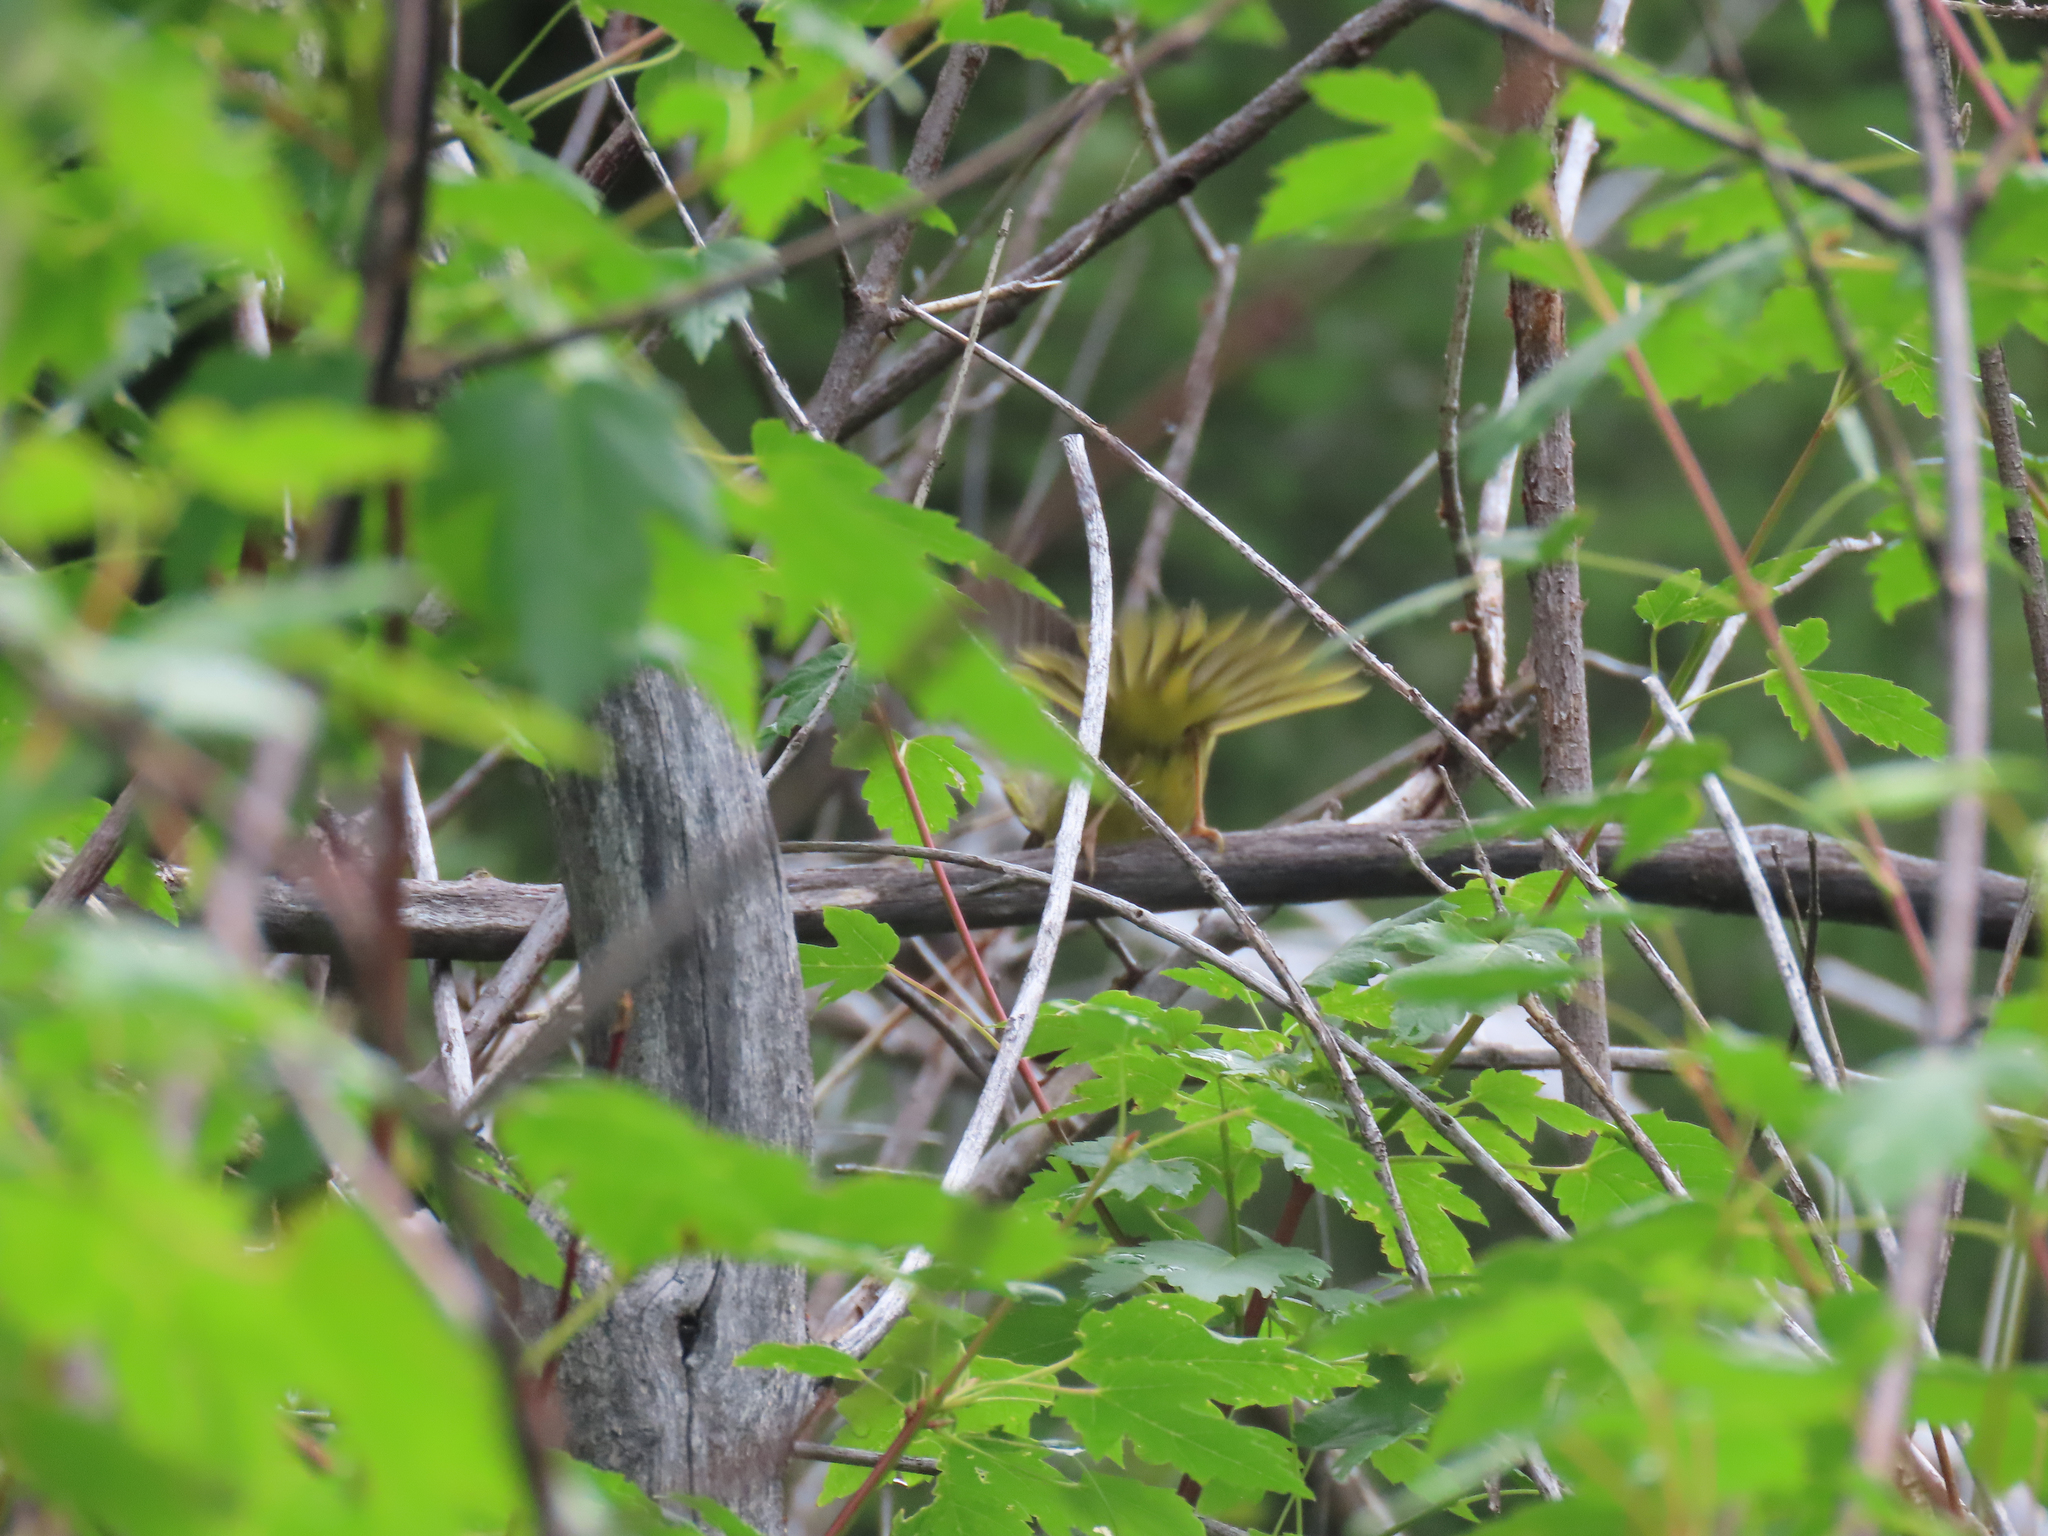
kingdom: Animalia
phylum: Chordata
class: Aves
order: Passeriformes
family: Parulidae
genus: Geothlypis
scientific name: Geothlypis tolmiei
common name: Macgillivray's warbler
